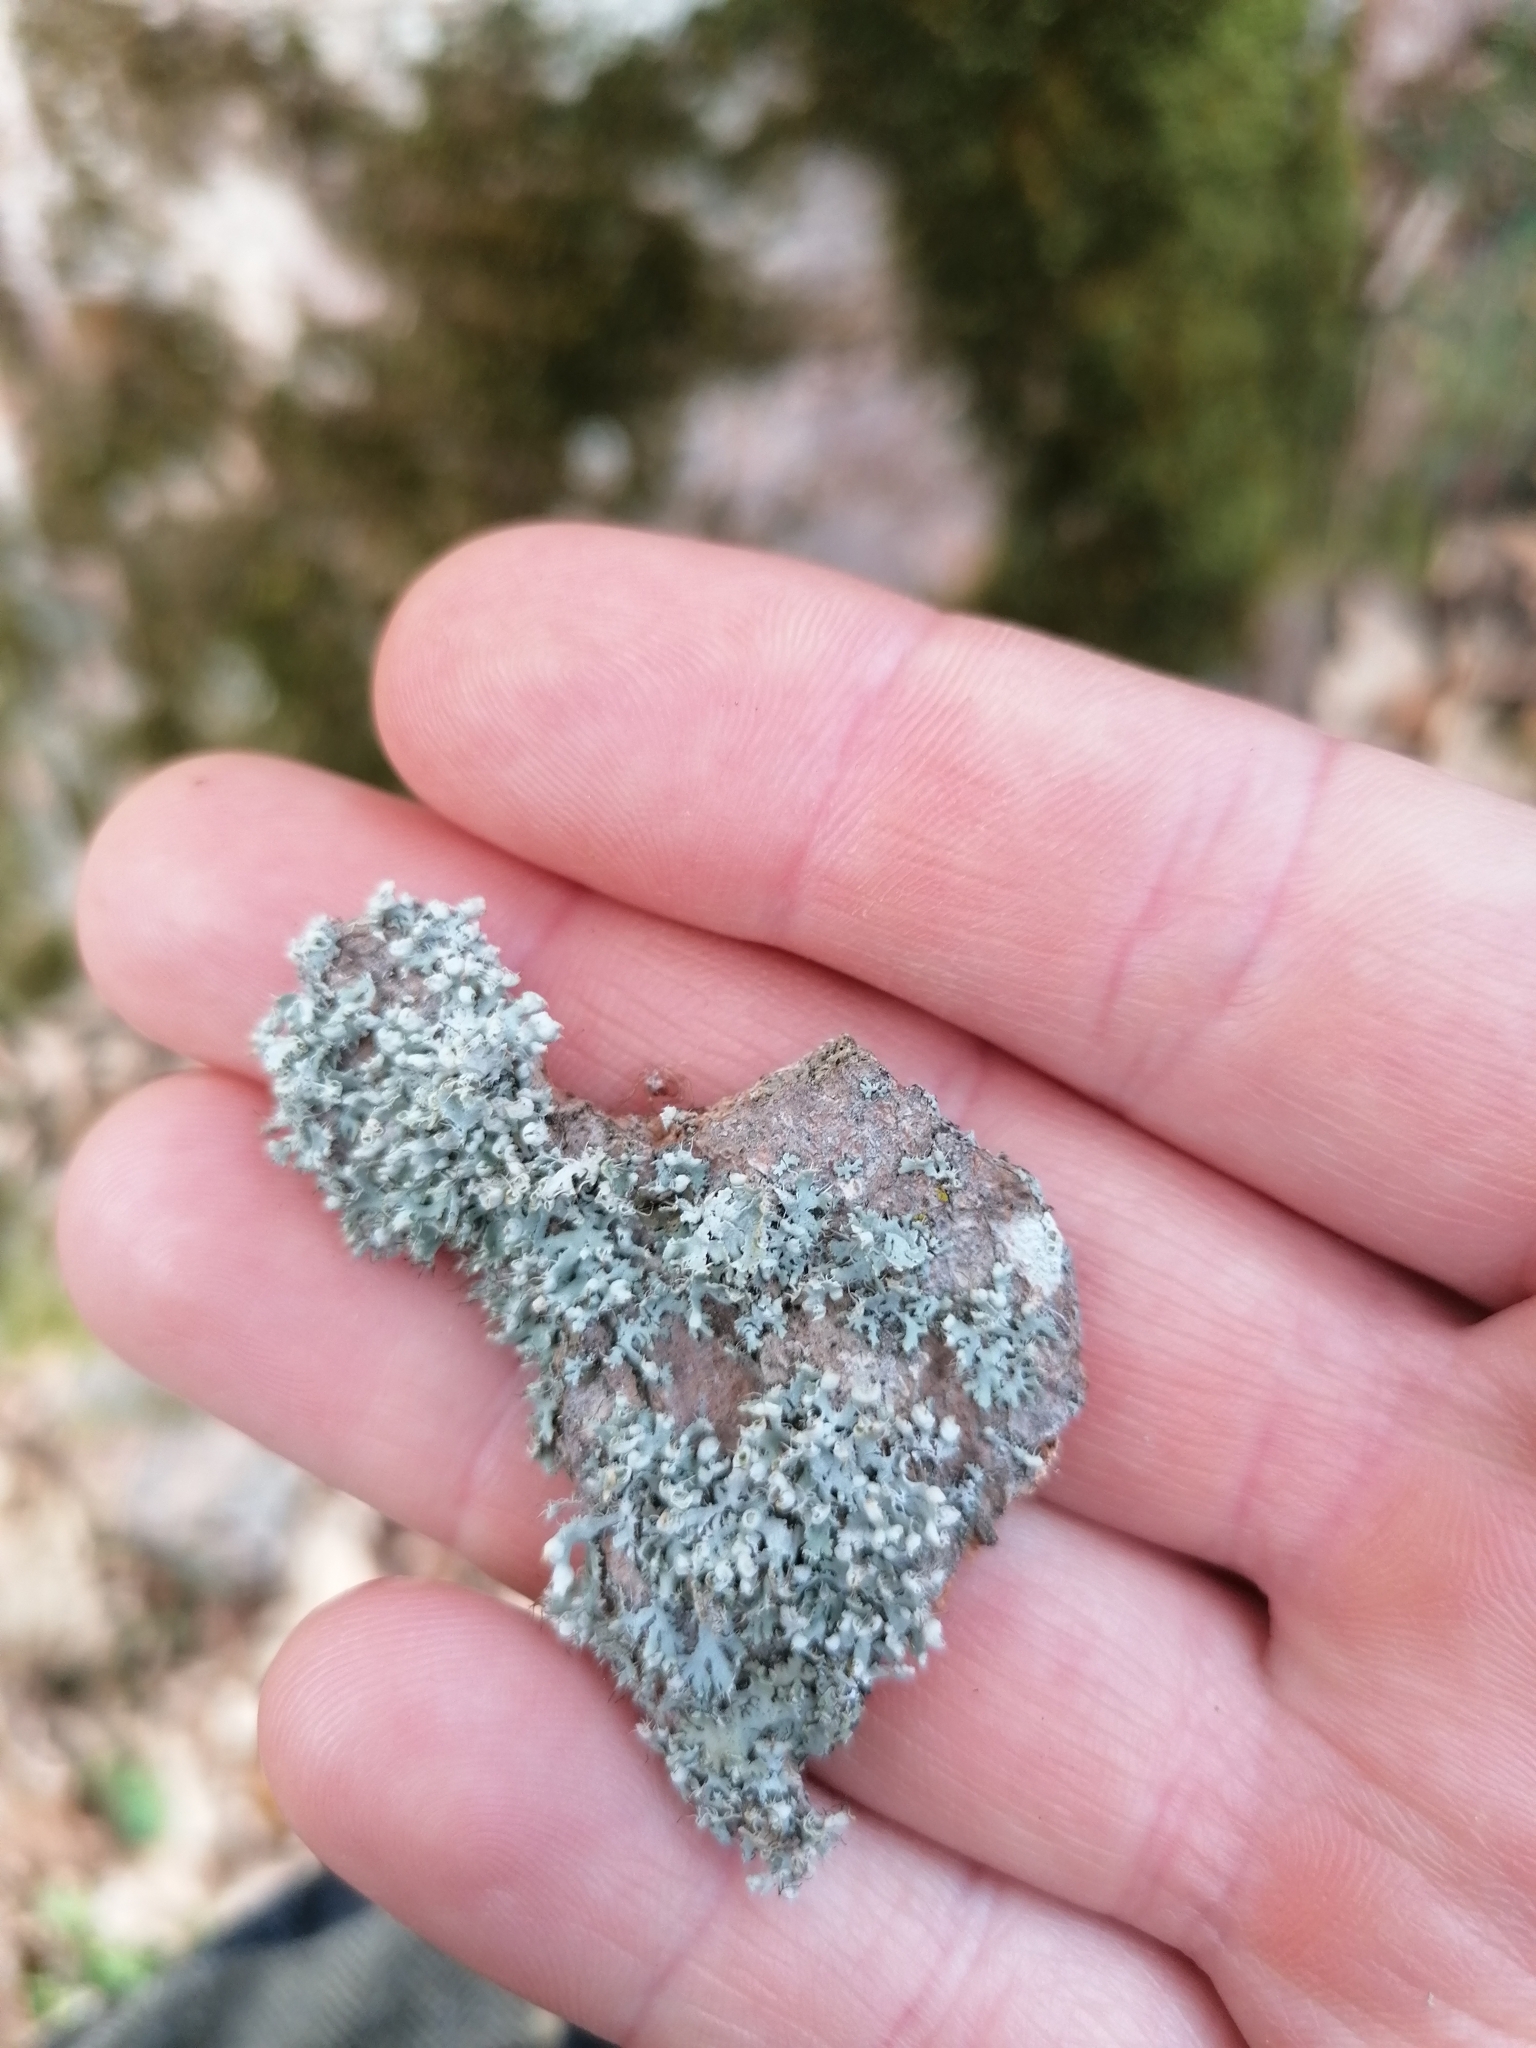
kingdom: Fungi
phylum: Ascomycota
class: Lecanoromycetes
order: Caliciales
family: Physciaceae
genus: Physcia
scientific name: Physcia adscendens
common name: Hooded rosette lichen
